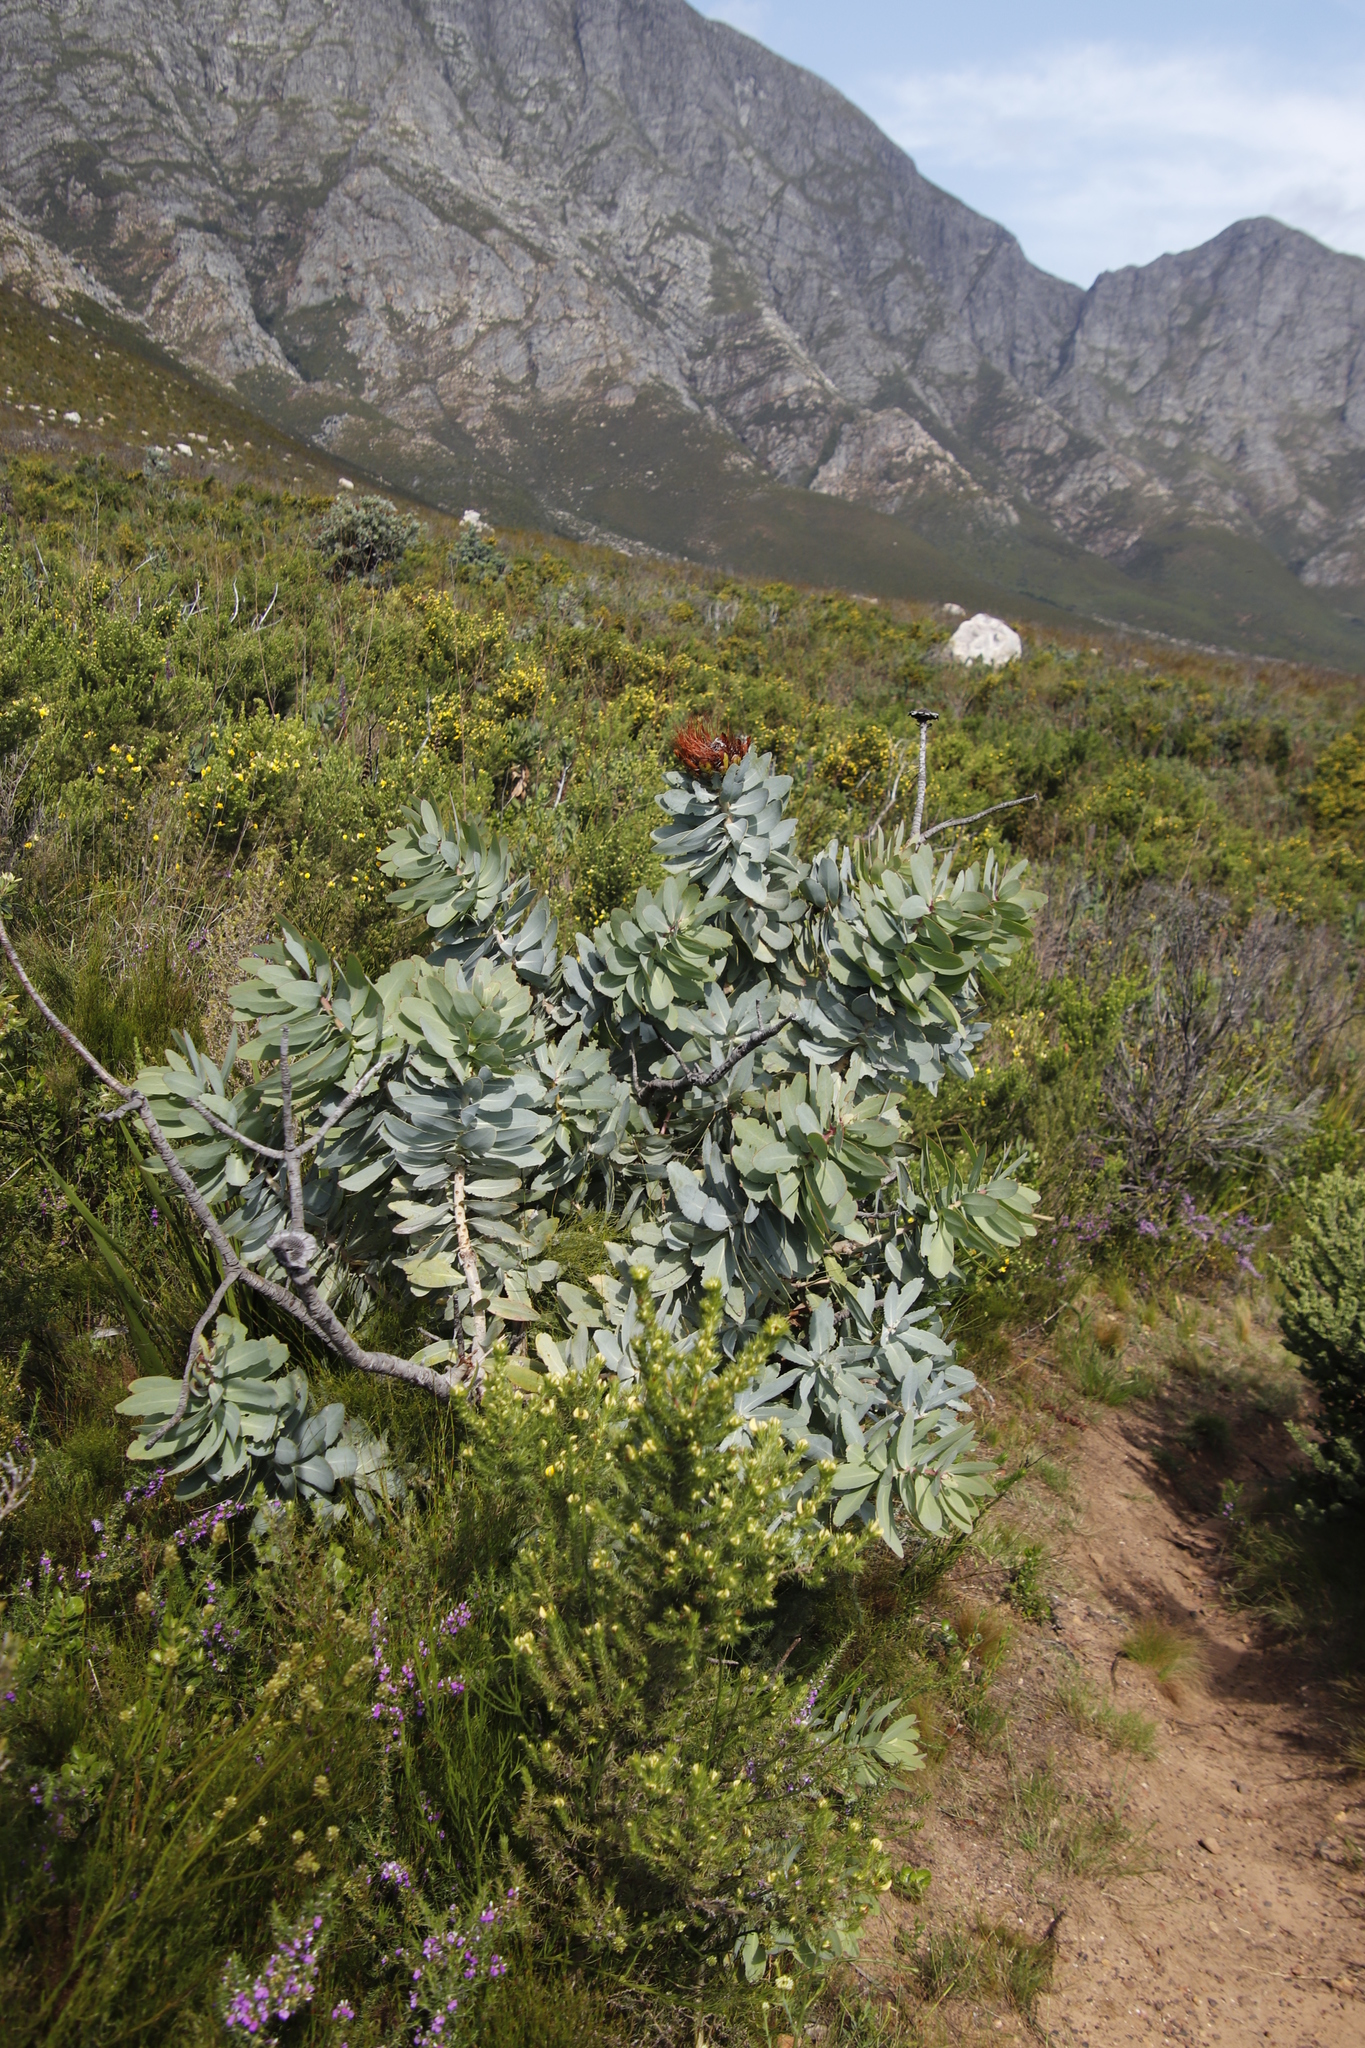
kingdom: Plantae
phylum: Tracheophyta
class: Magnoliopsida
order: Proteales
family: Proteaceae
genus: Protea
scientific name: Protea nitida
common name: Tree protea
